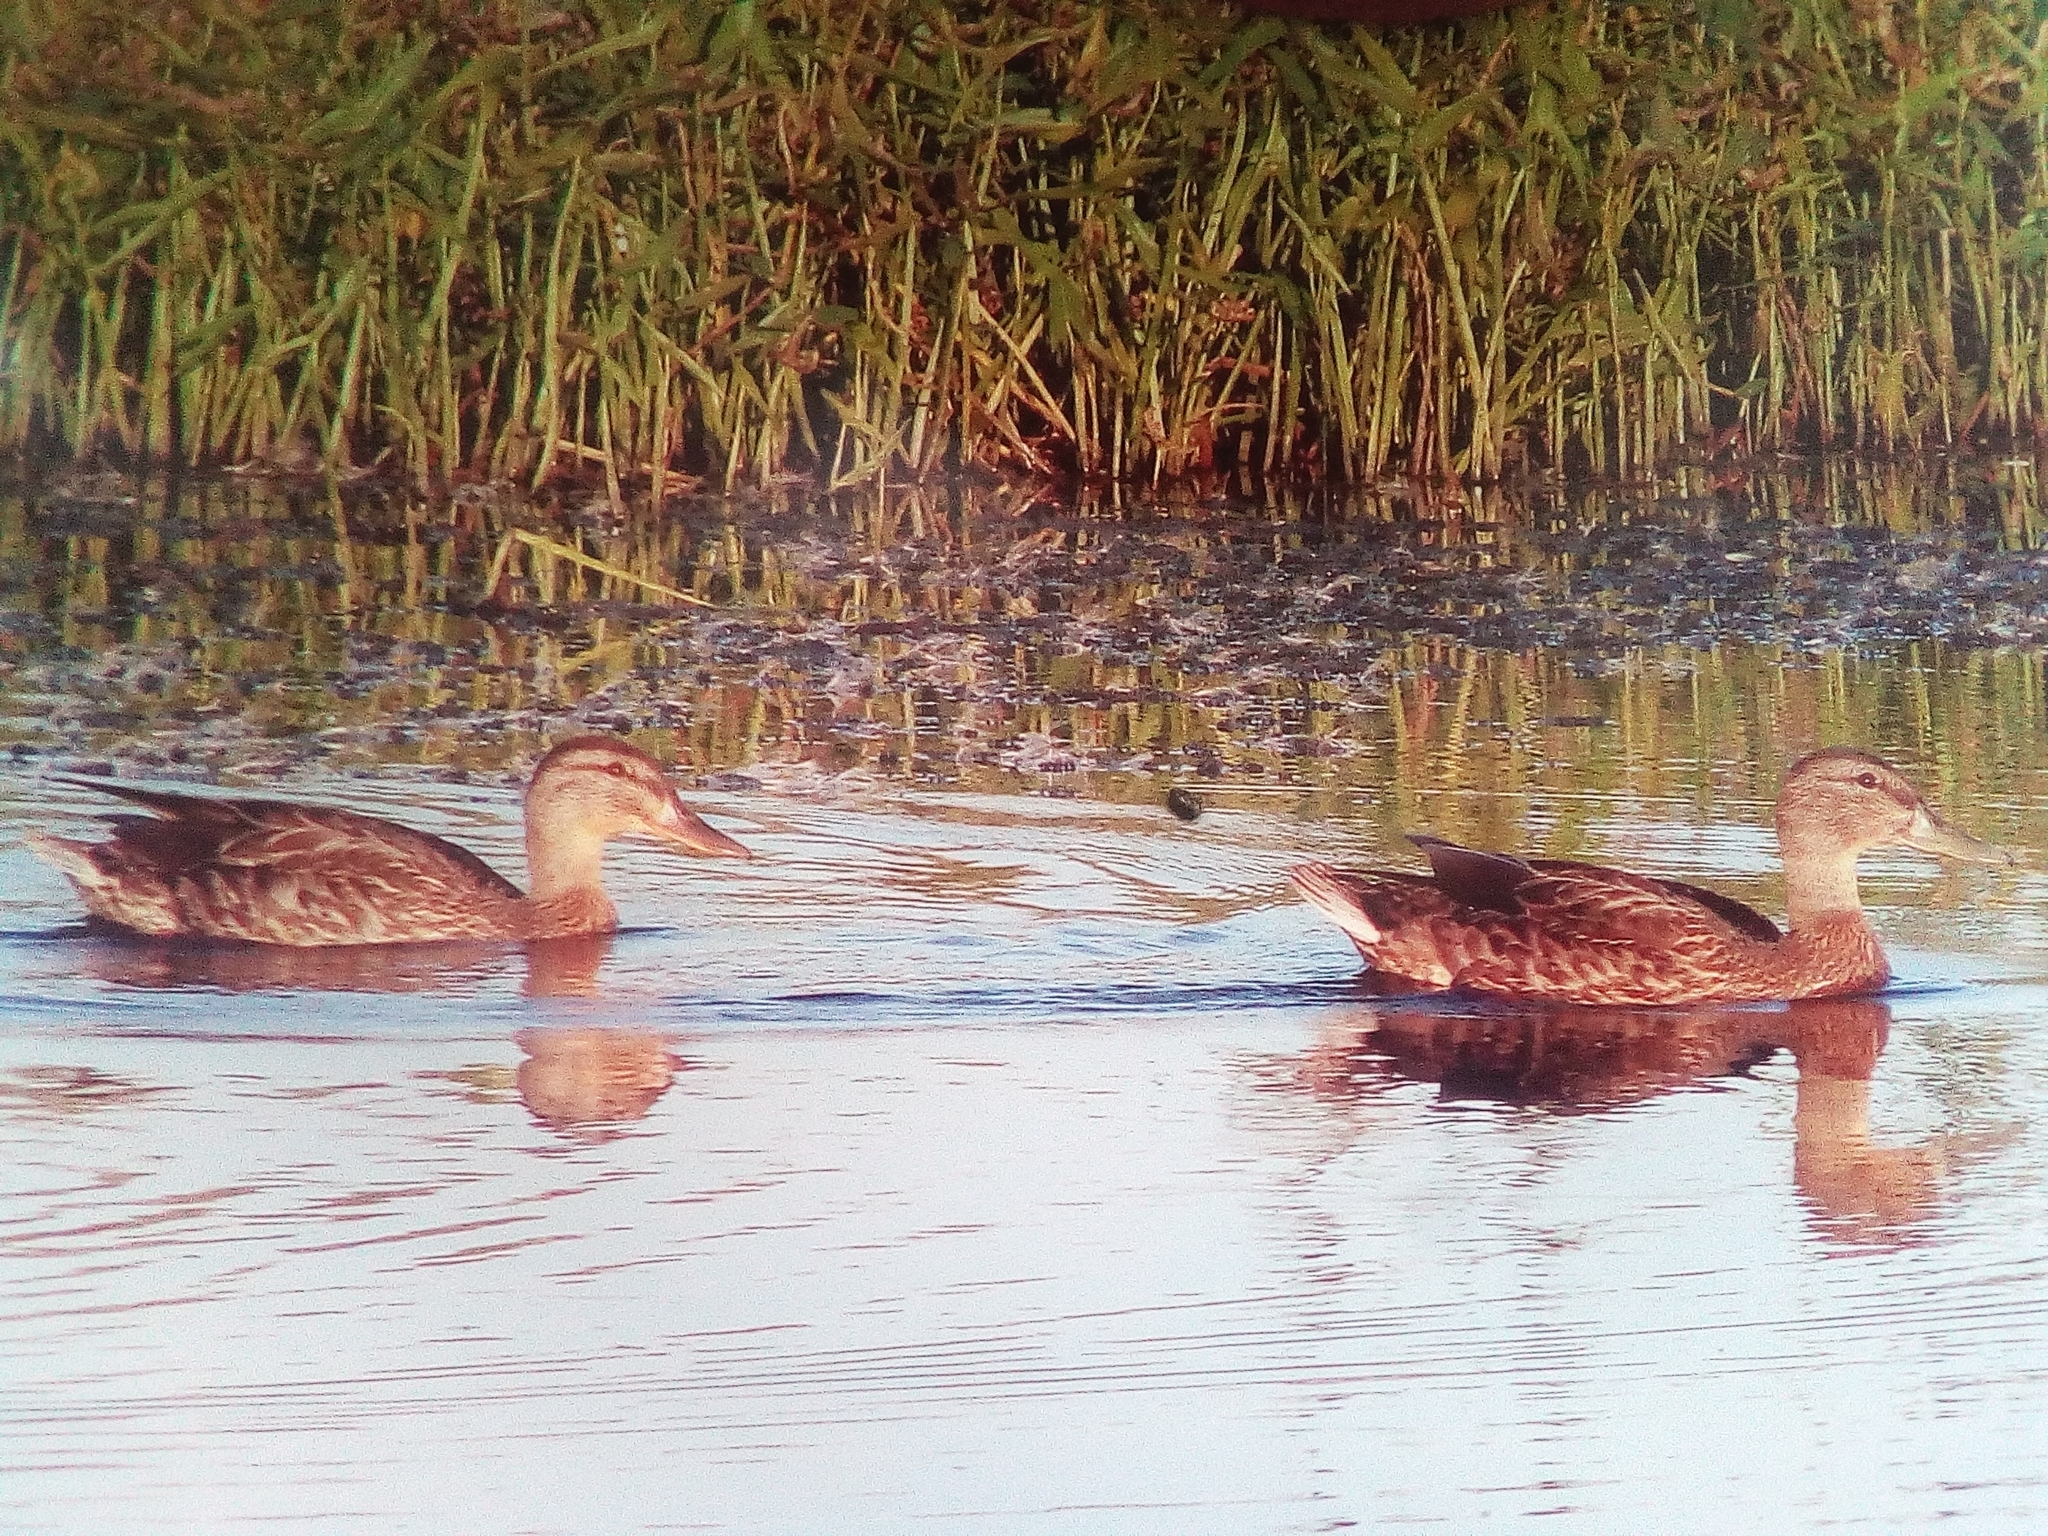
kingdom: Animalia
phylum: Chordata
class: Aves
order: Anseriformes
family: Anatidae
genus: Anas
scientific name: Anas platyrhynchos
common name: Mallard
